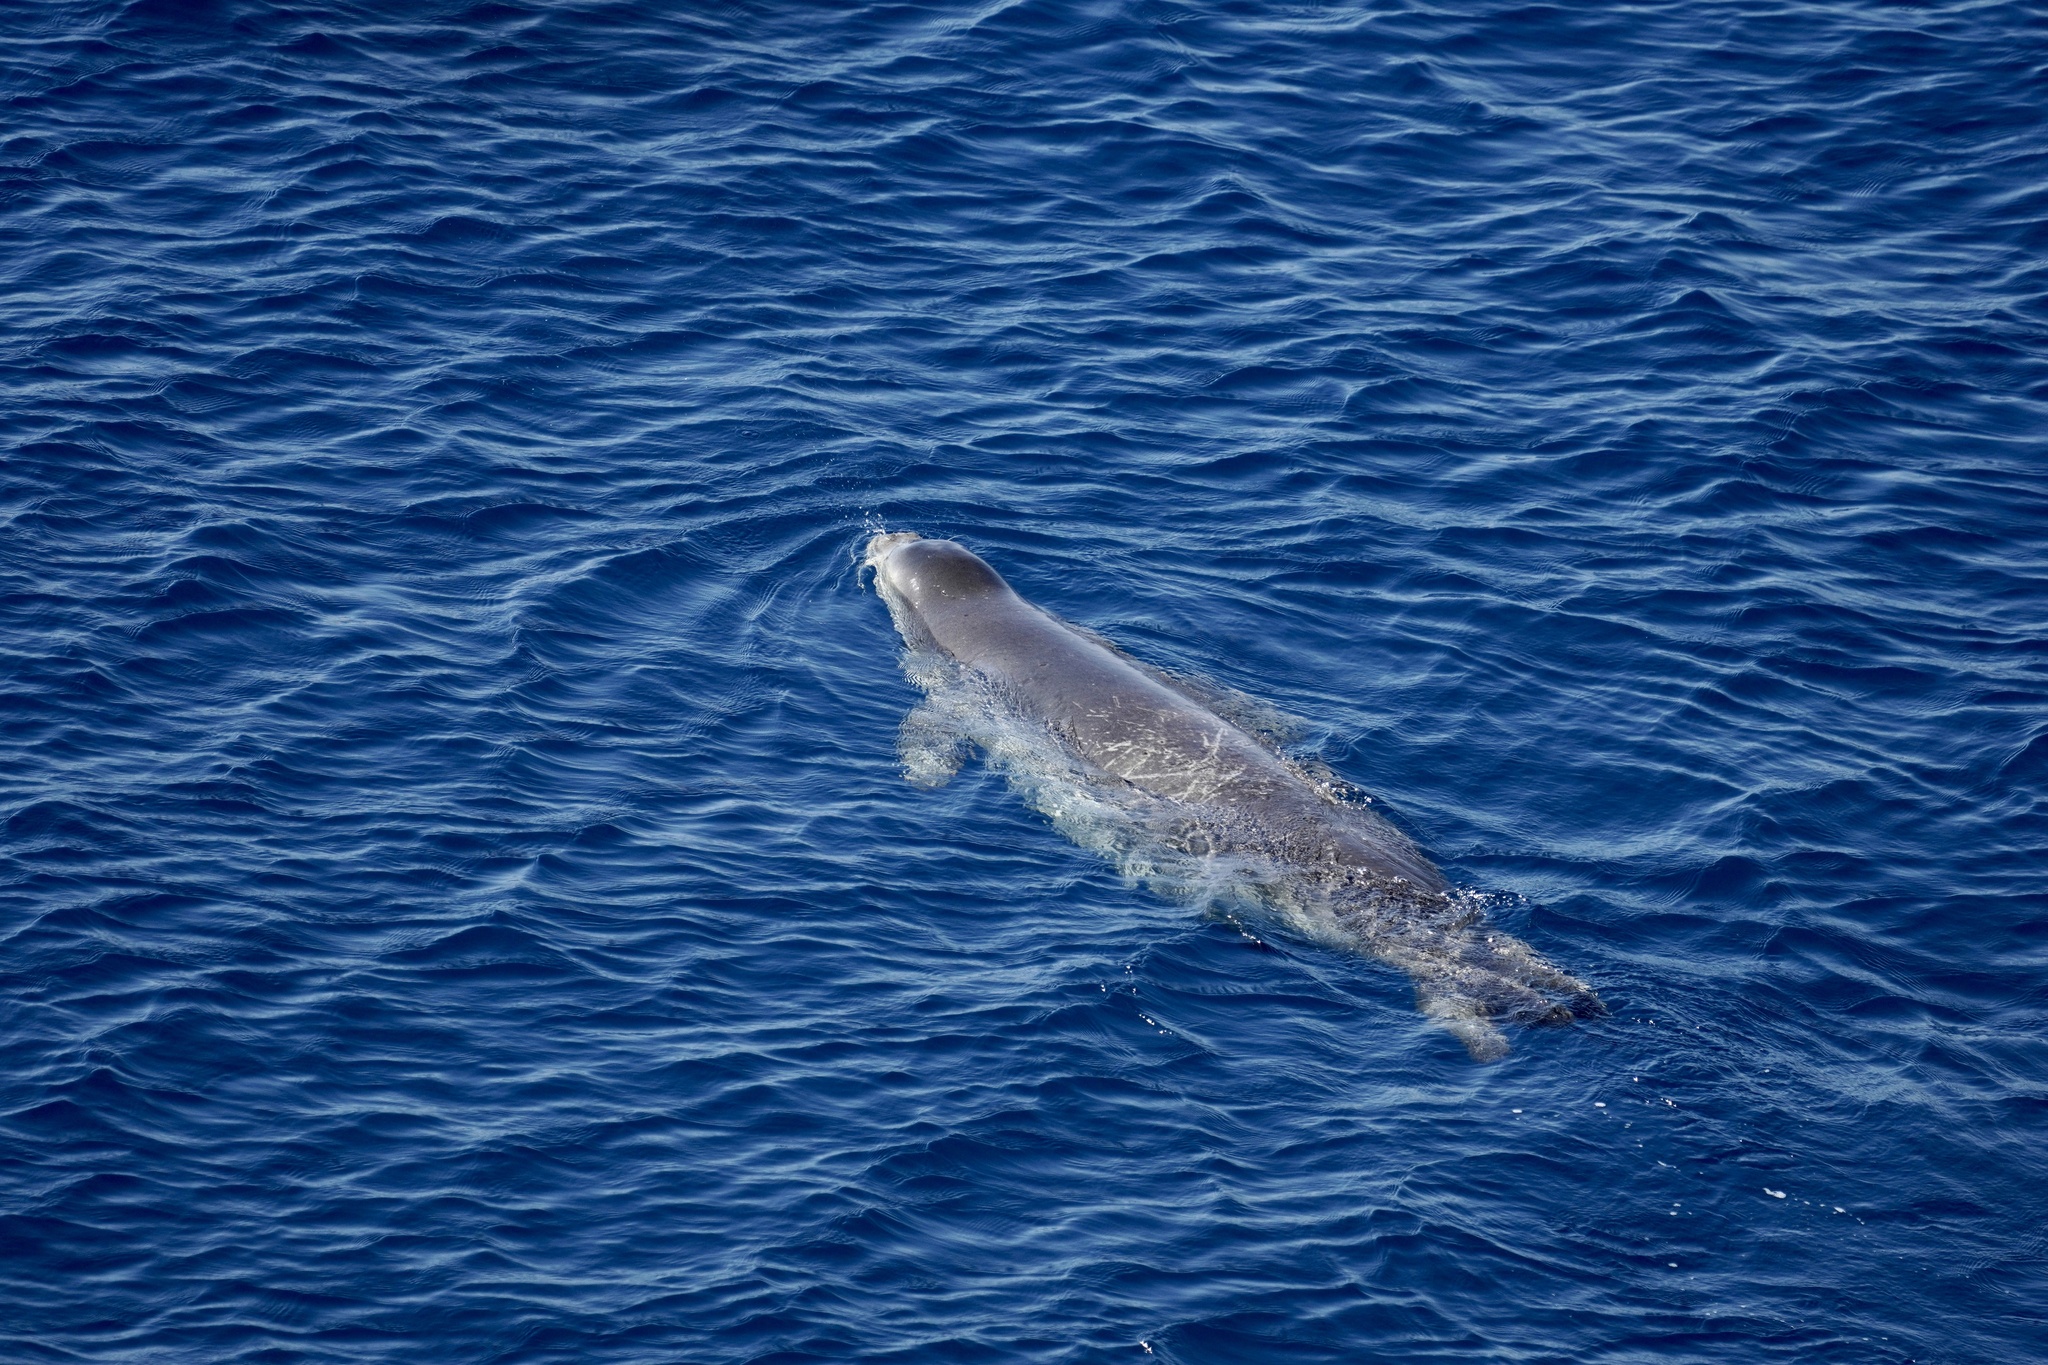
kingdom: Animalia
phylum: Chordata
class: Mammalia
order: Carnivora
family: Phocidae
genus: Monachus
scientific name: Monachus monachus
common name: Mediterranean monk seal
